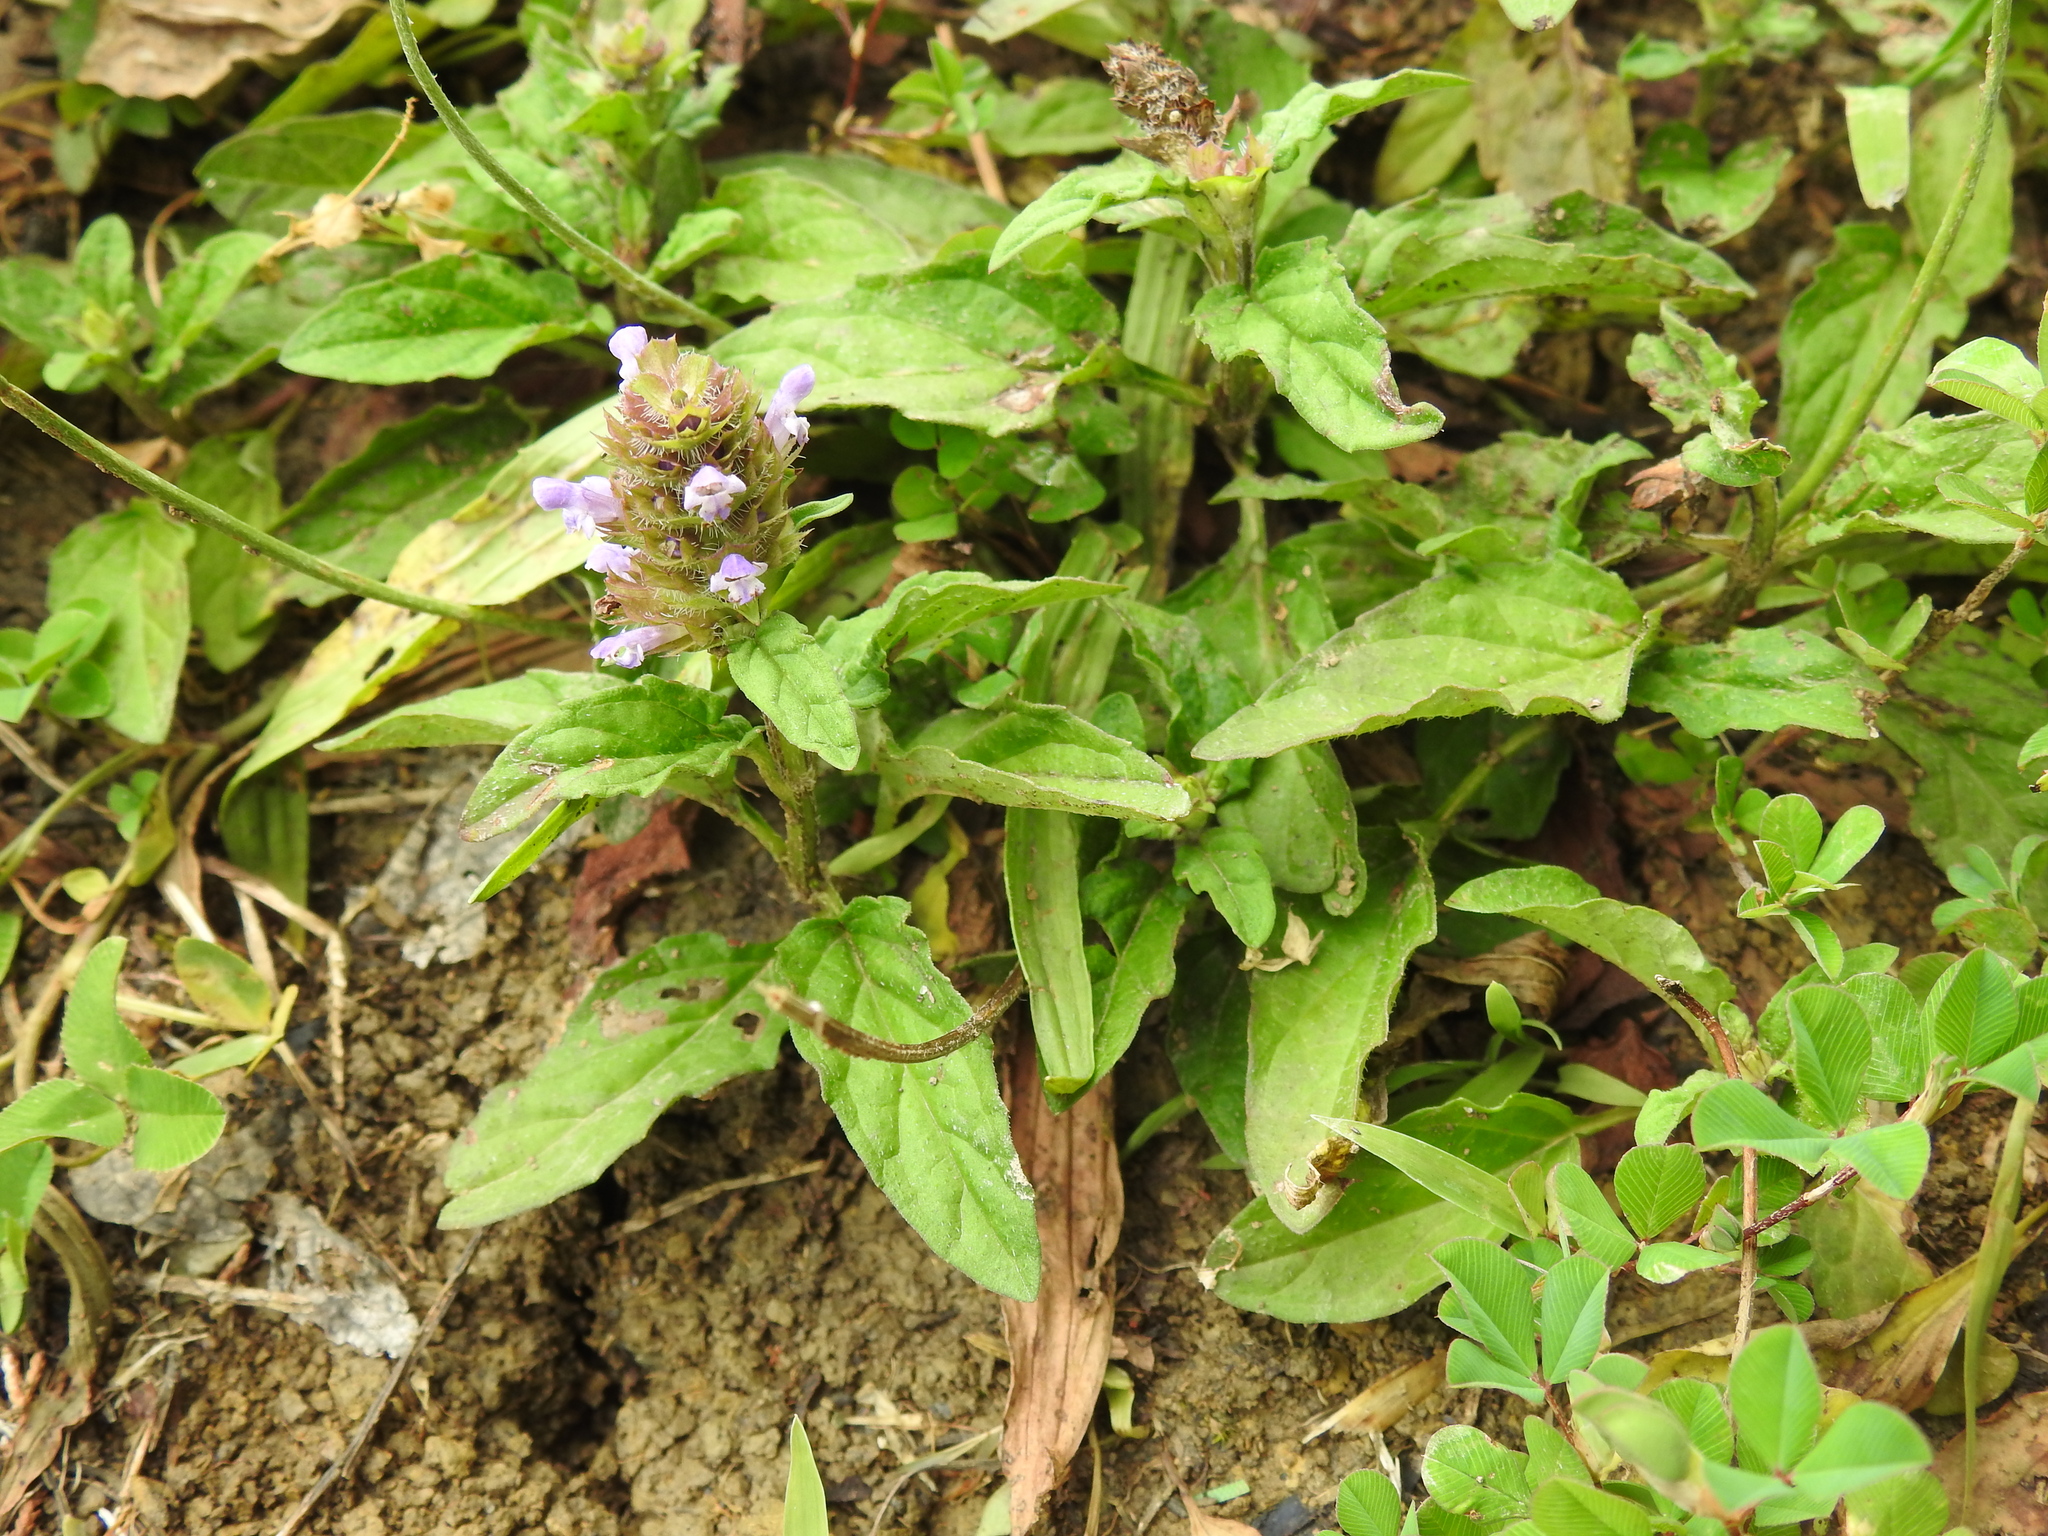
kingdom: Plantae
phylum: Tracheophyta
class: Magnoliopsida
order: Lamiales
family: Lamiaceae
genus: Prunella
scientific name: Prunella vulgaris
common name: Heal-all
